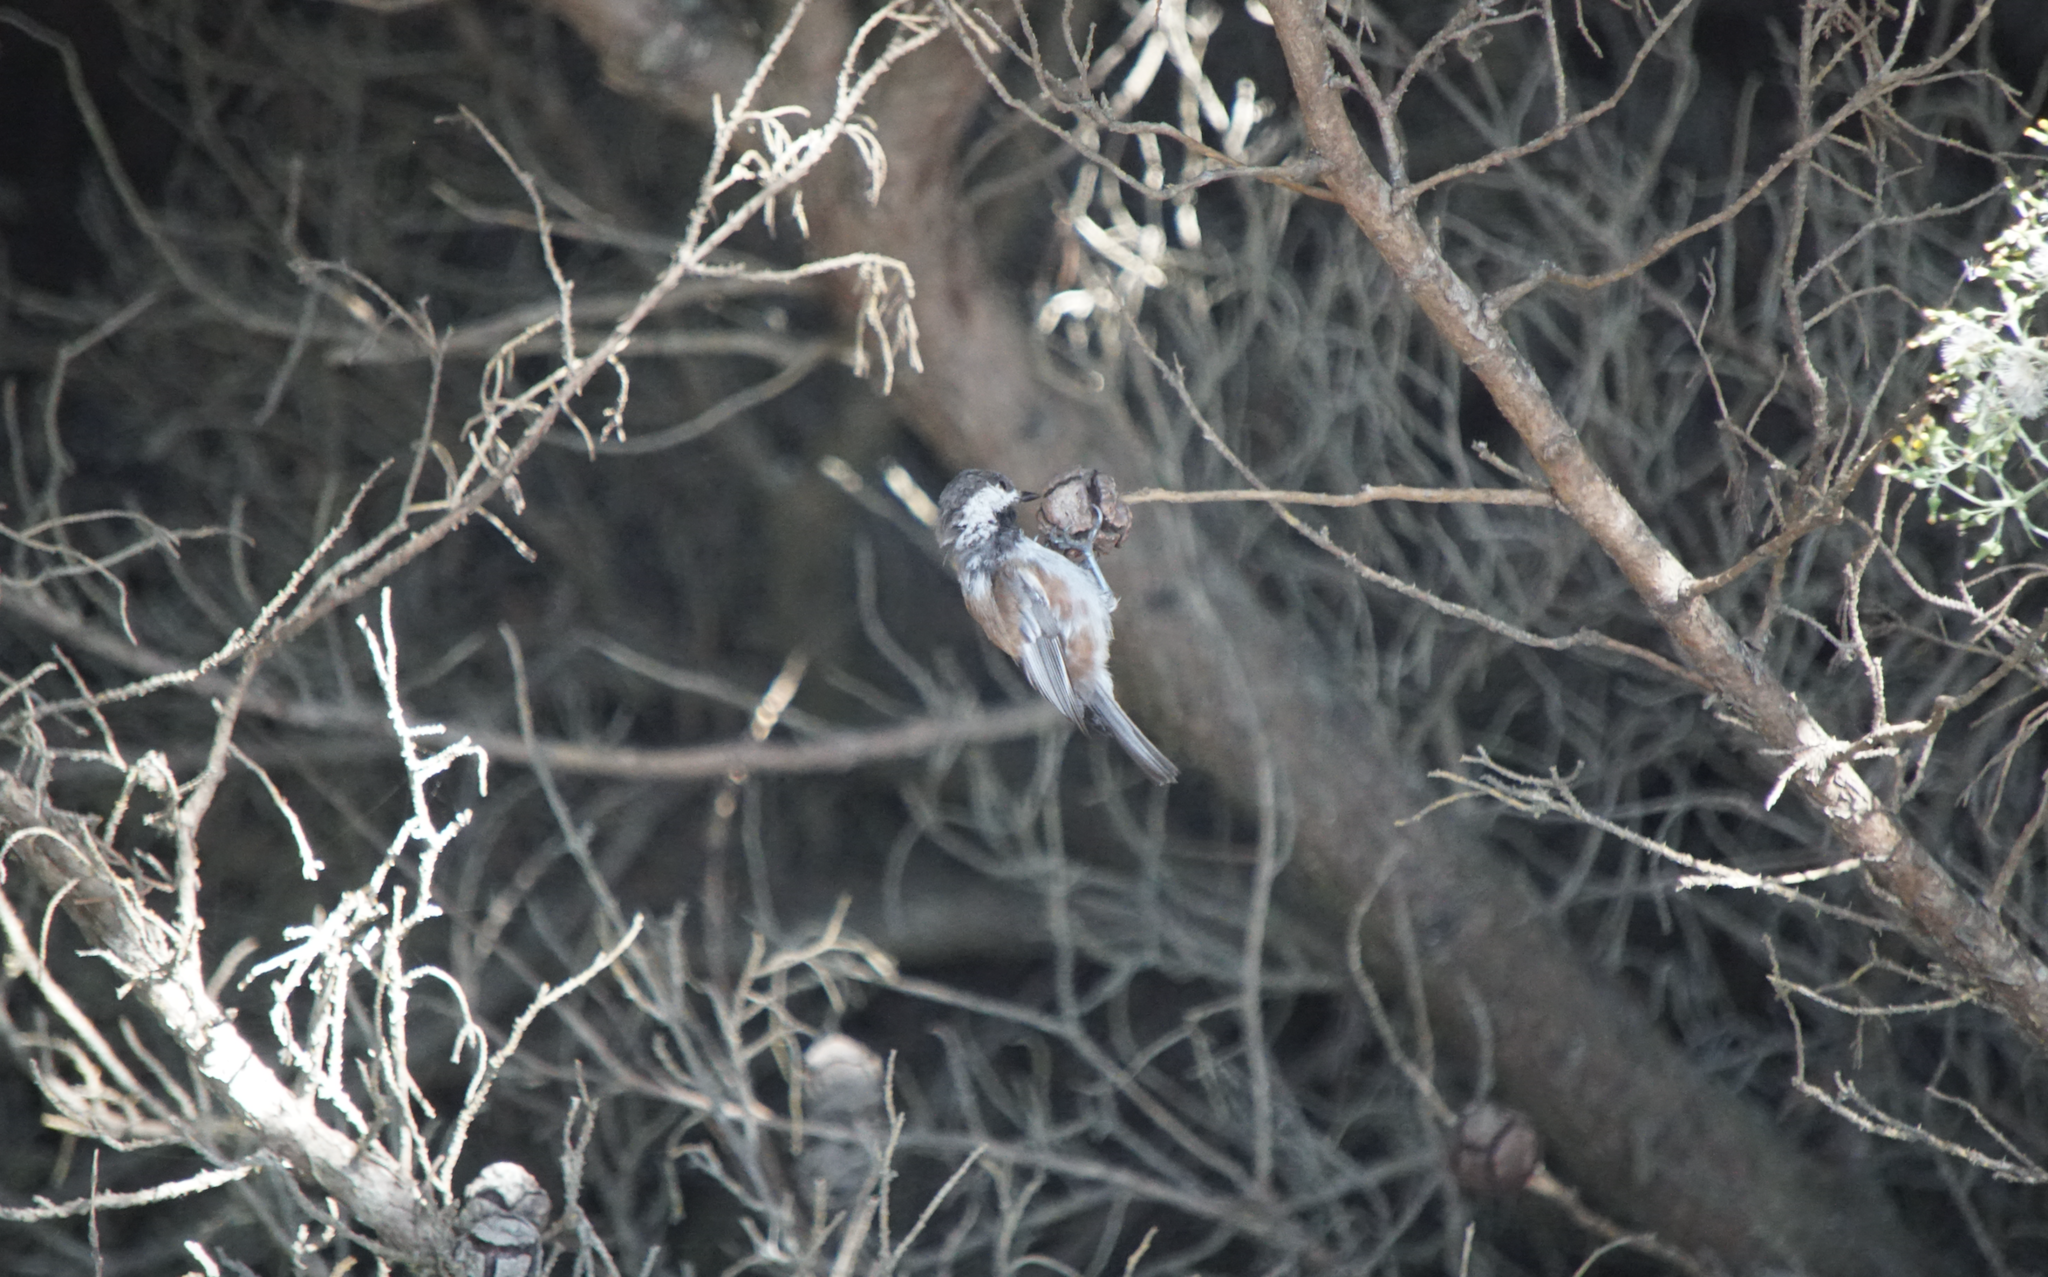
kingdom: Animalia
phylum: Chordata
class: Aves
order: Passeriformes
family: Paridae
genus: Poecile
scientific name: Poecile rufescens
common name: Chestnut-backed chickadee
